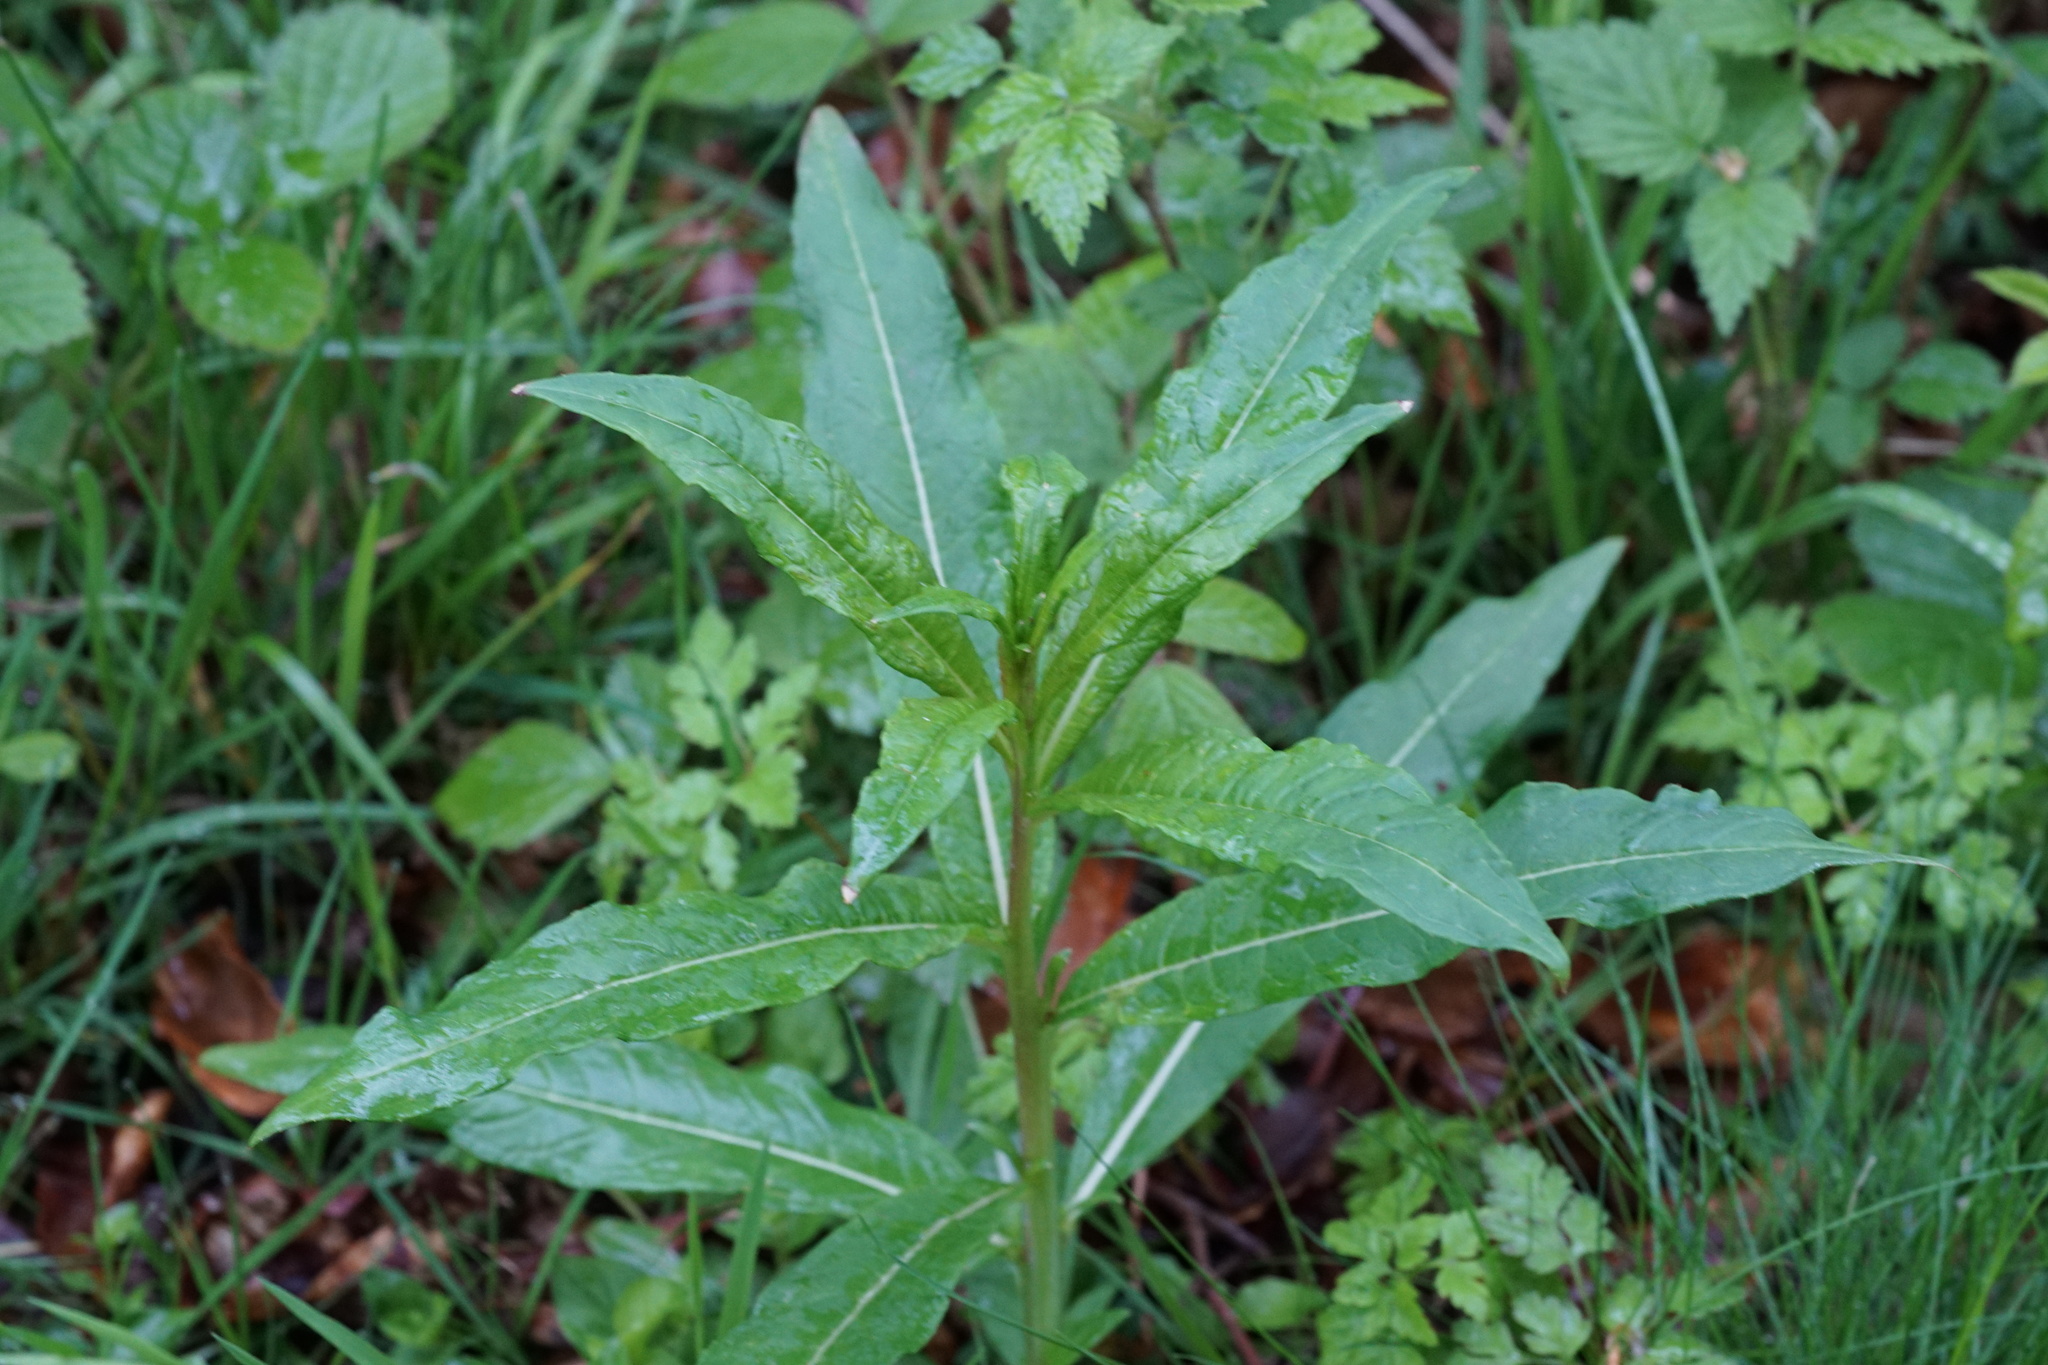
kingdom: Plantae
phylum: Tracheophyta
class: Magnoliopsida
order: Myrtales
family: Onagraceae
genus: Chamaenerion
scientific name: Chamaenerion angustifolium
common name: Fireweed
